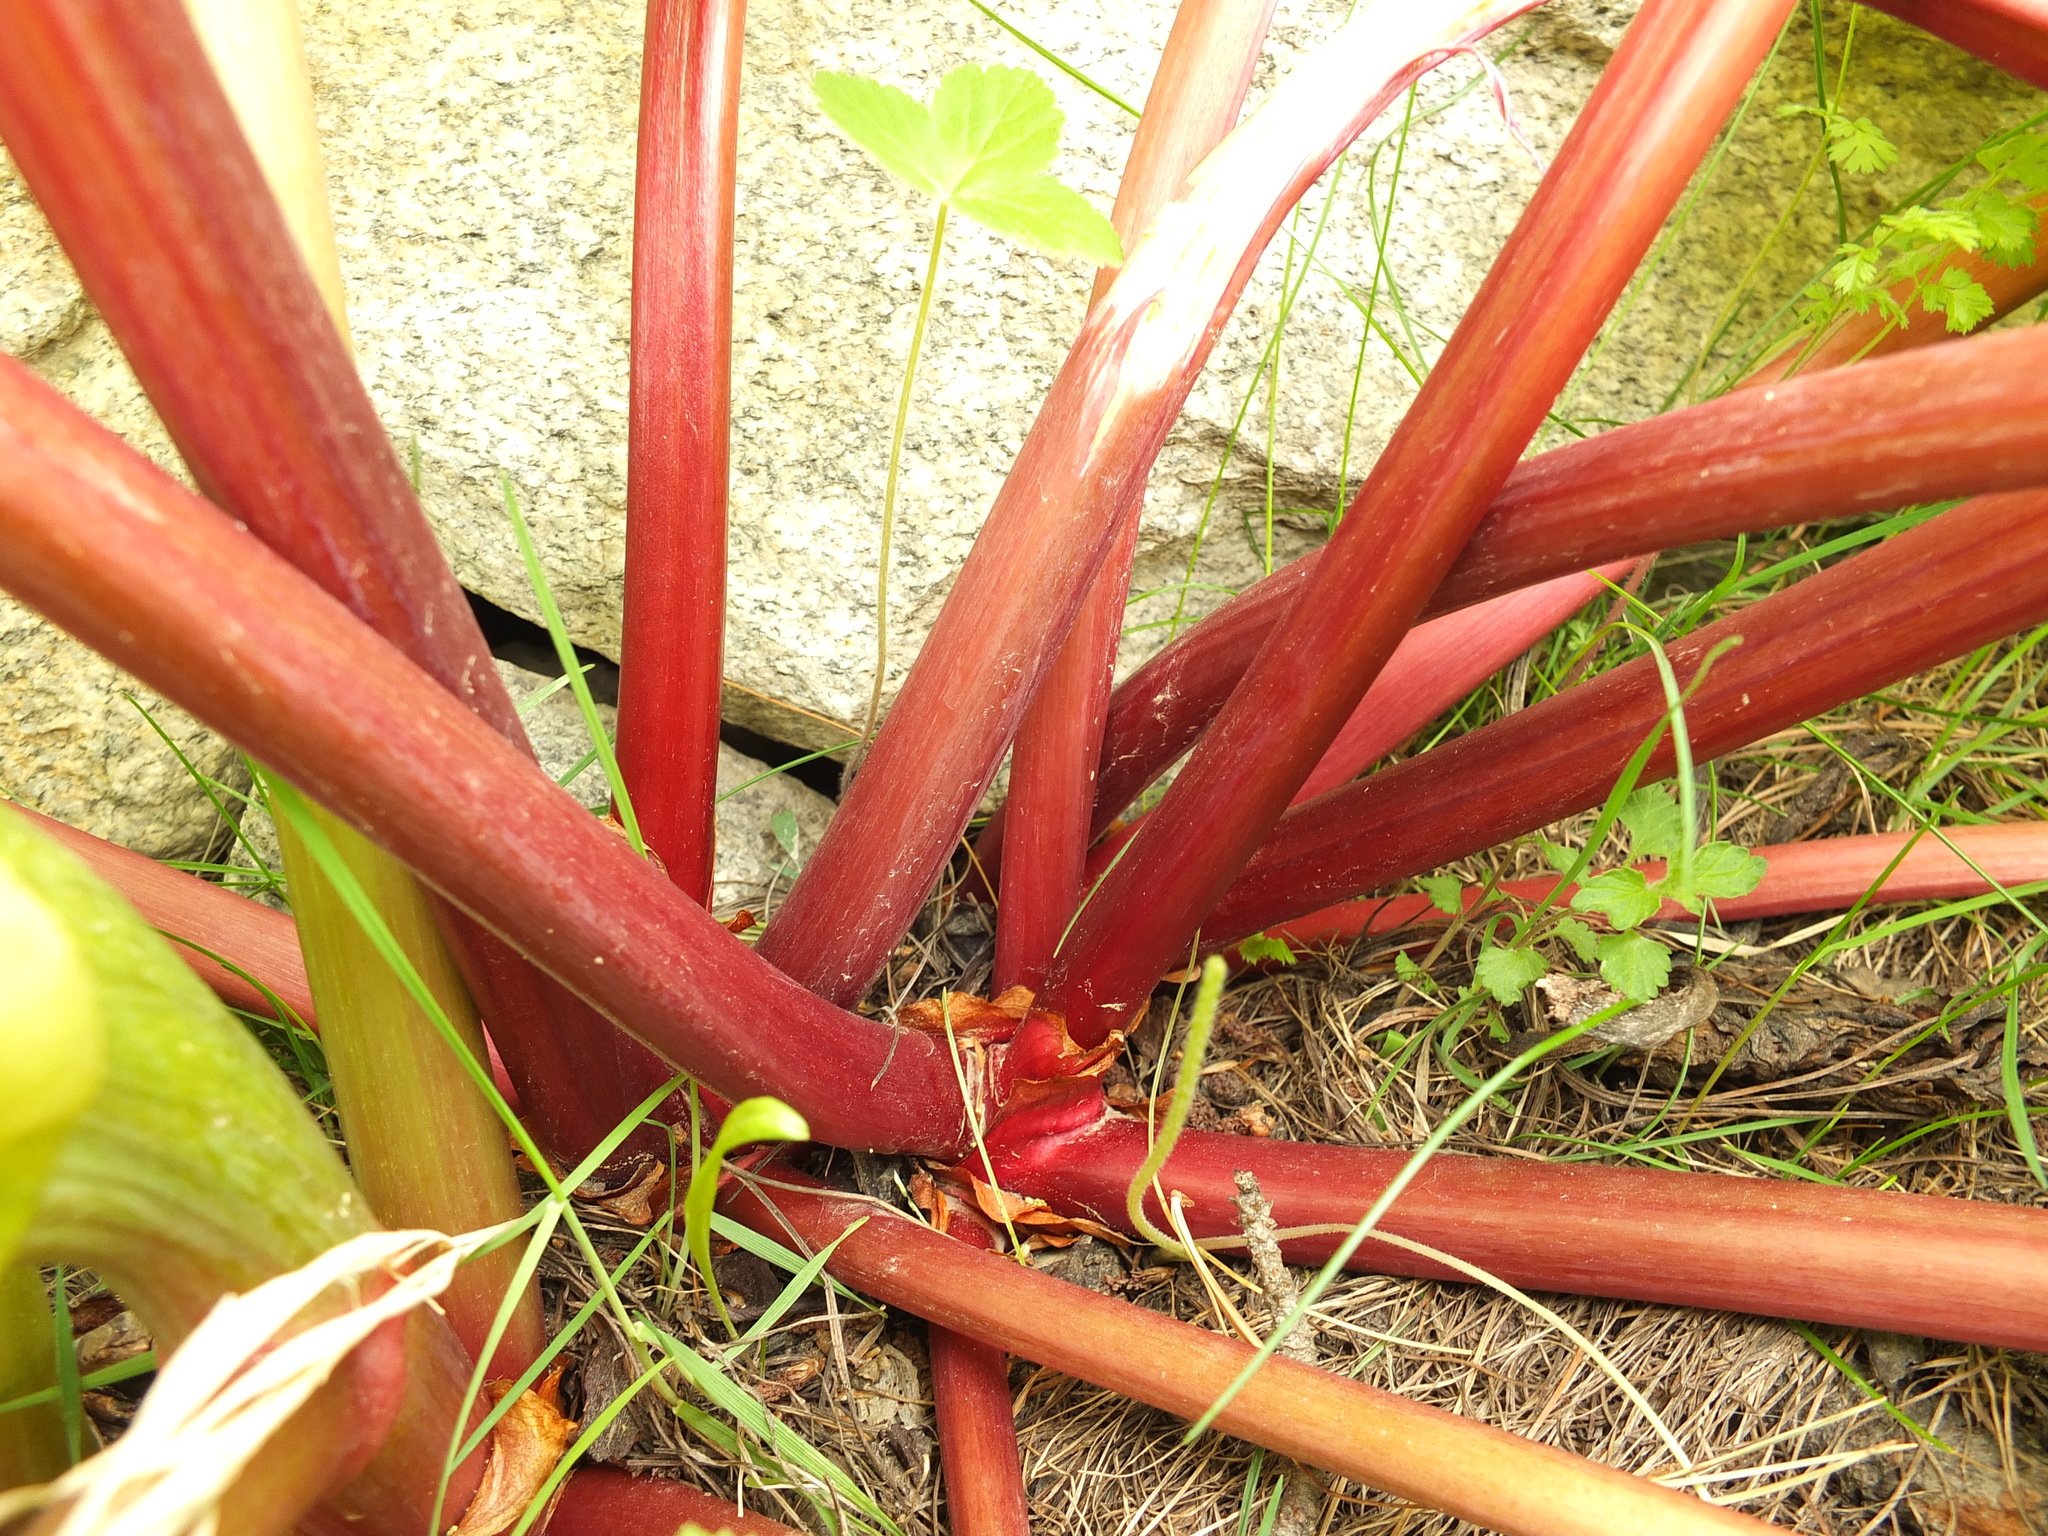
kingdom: Plantae
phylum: Tracheophyta
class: Magnoliopsida
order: Caryophyllales
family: Polygonaceae
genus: Rheum
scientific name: Rheum webbianum
